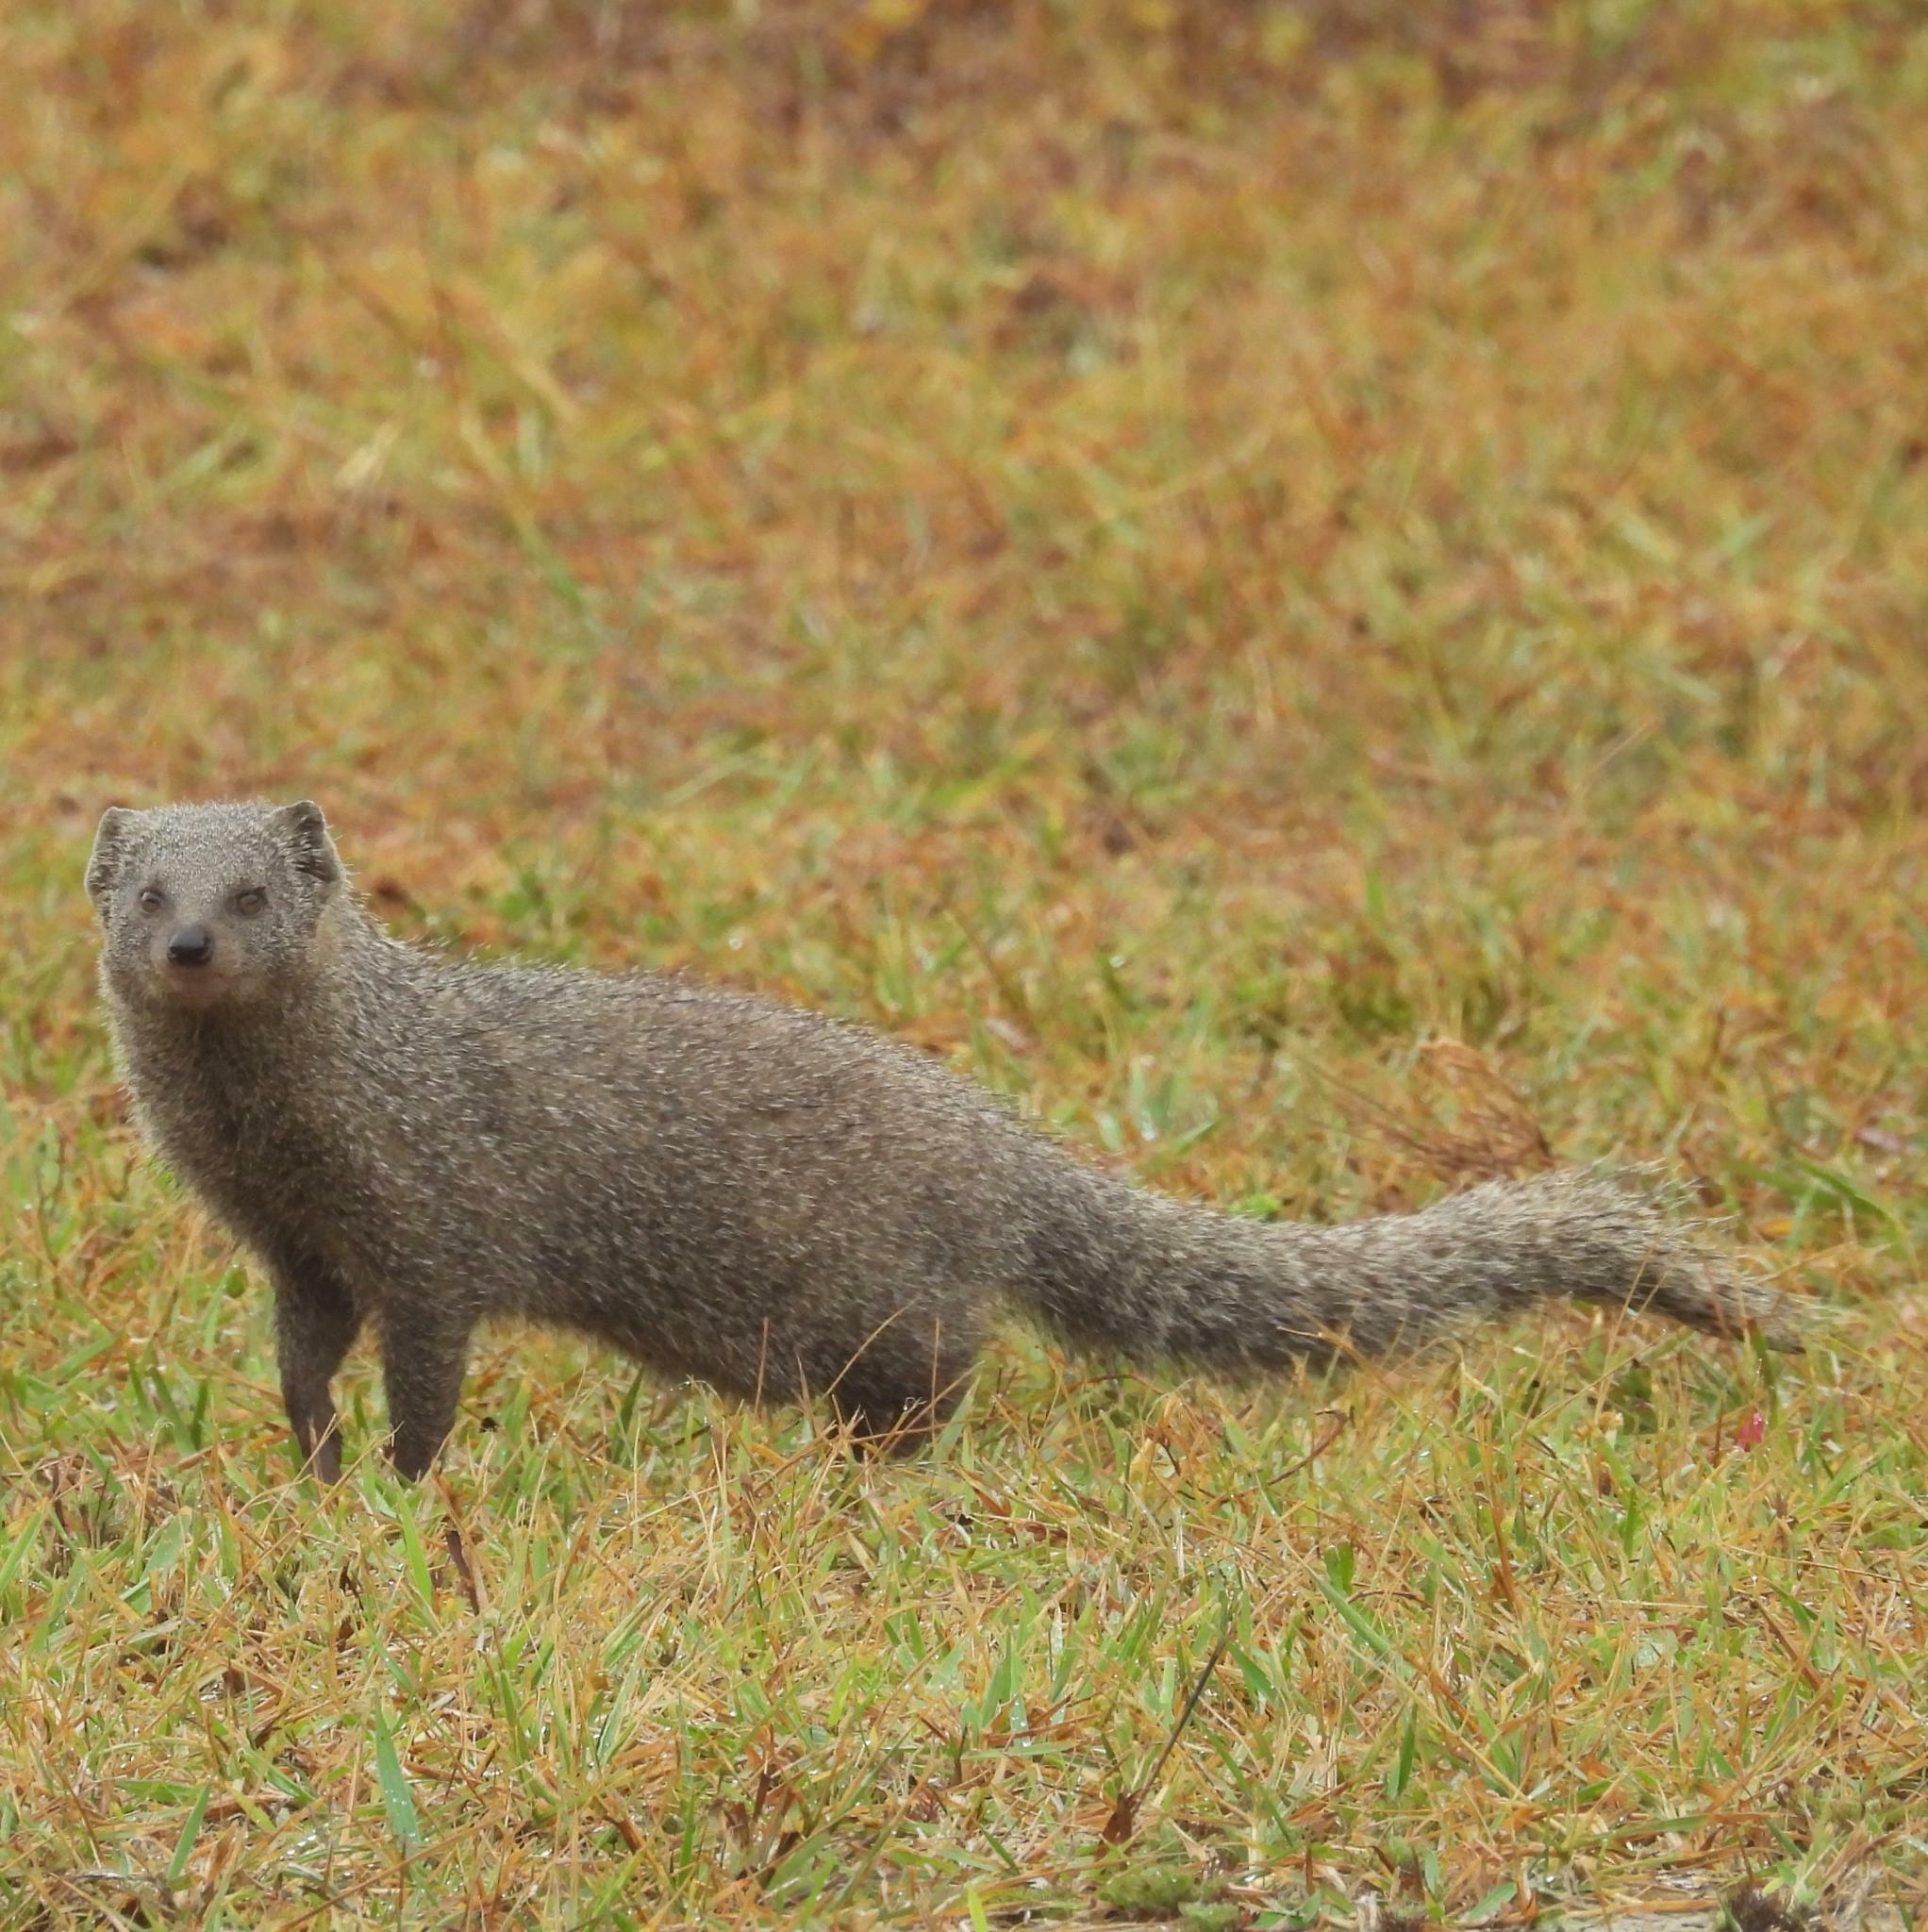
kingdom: Animalia
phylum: Chordata
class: Mammalia
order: Carnivora
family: Herpestidae
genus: Galerella
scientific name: Galerella pulverulenta
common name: Cape gray mongoose
